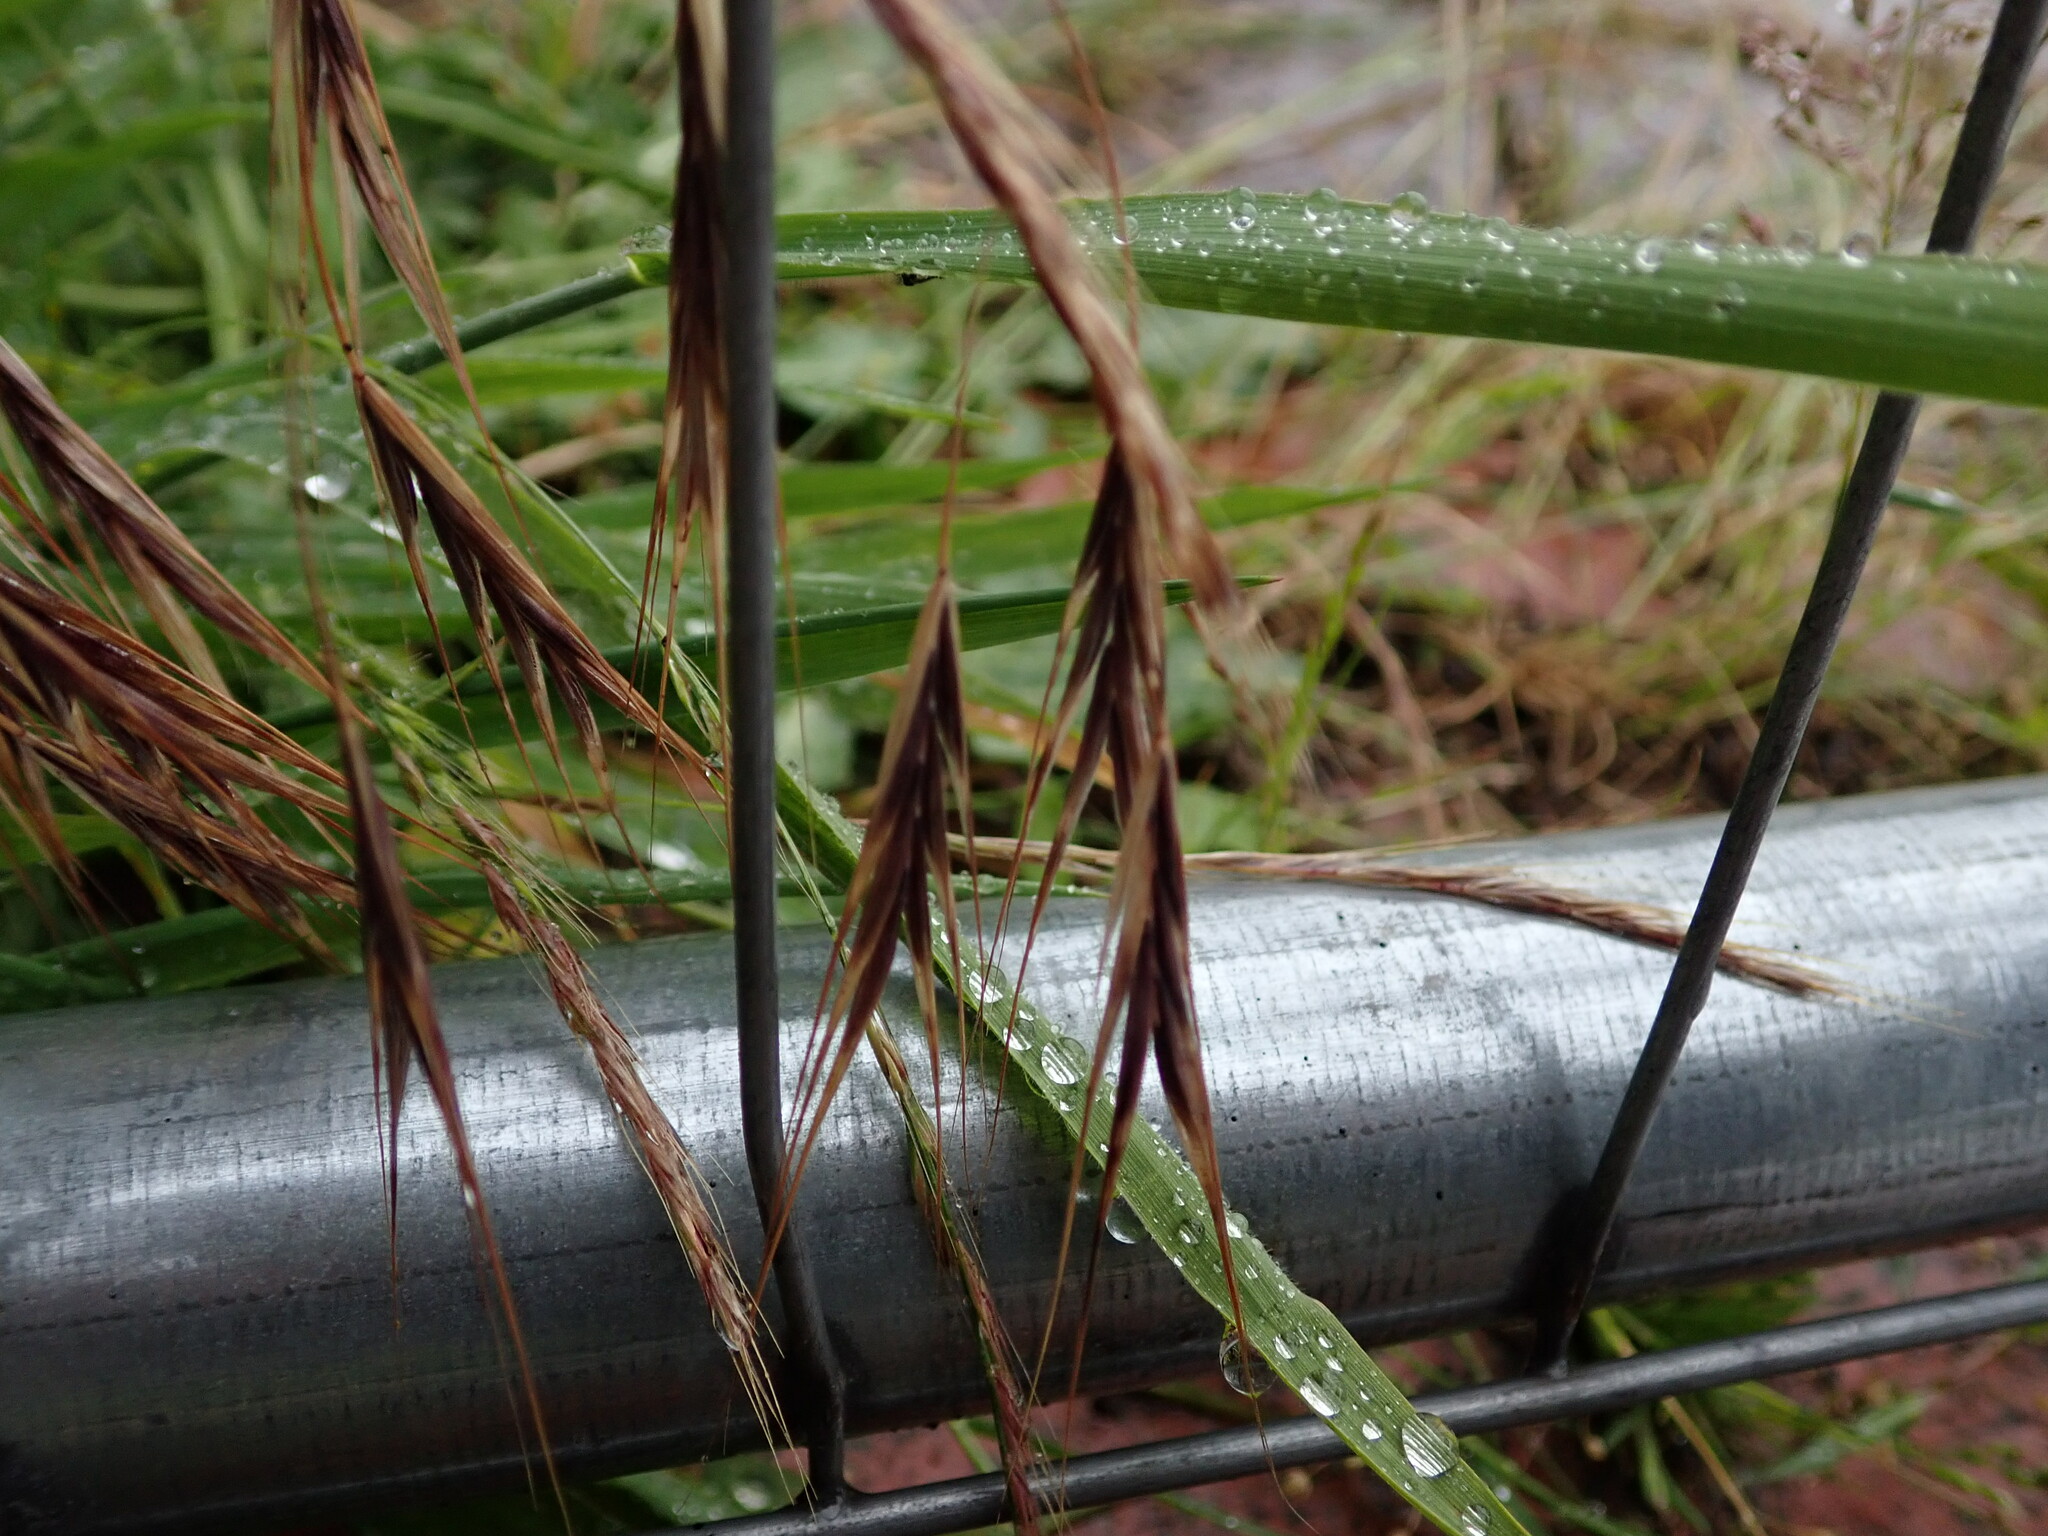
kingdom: Plantae
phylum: Tracheophyta
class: Liliopsida
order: Poales
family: Poaceae
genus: Bromus
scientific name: Bromus sterilis
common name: Poverty brome
